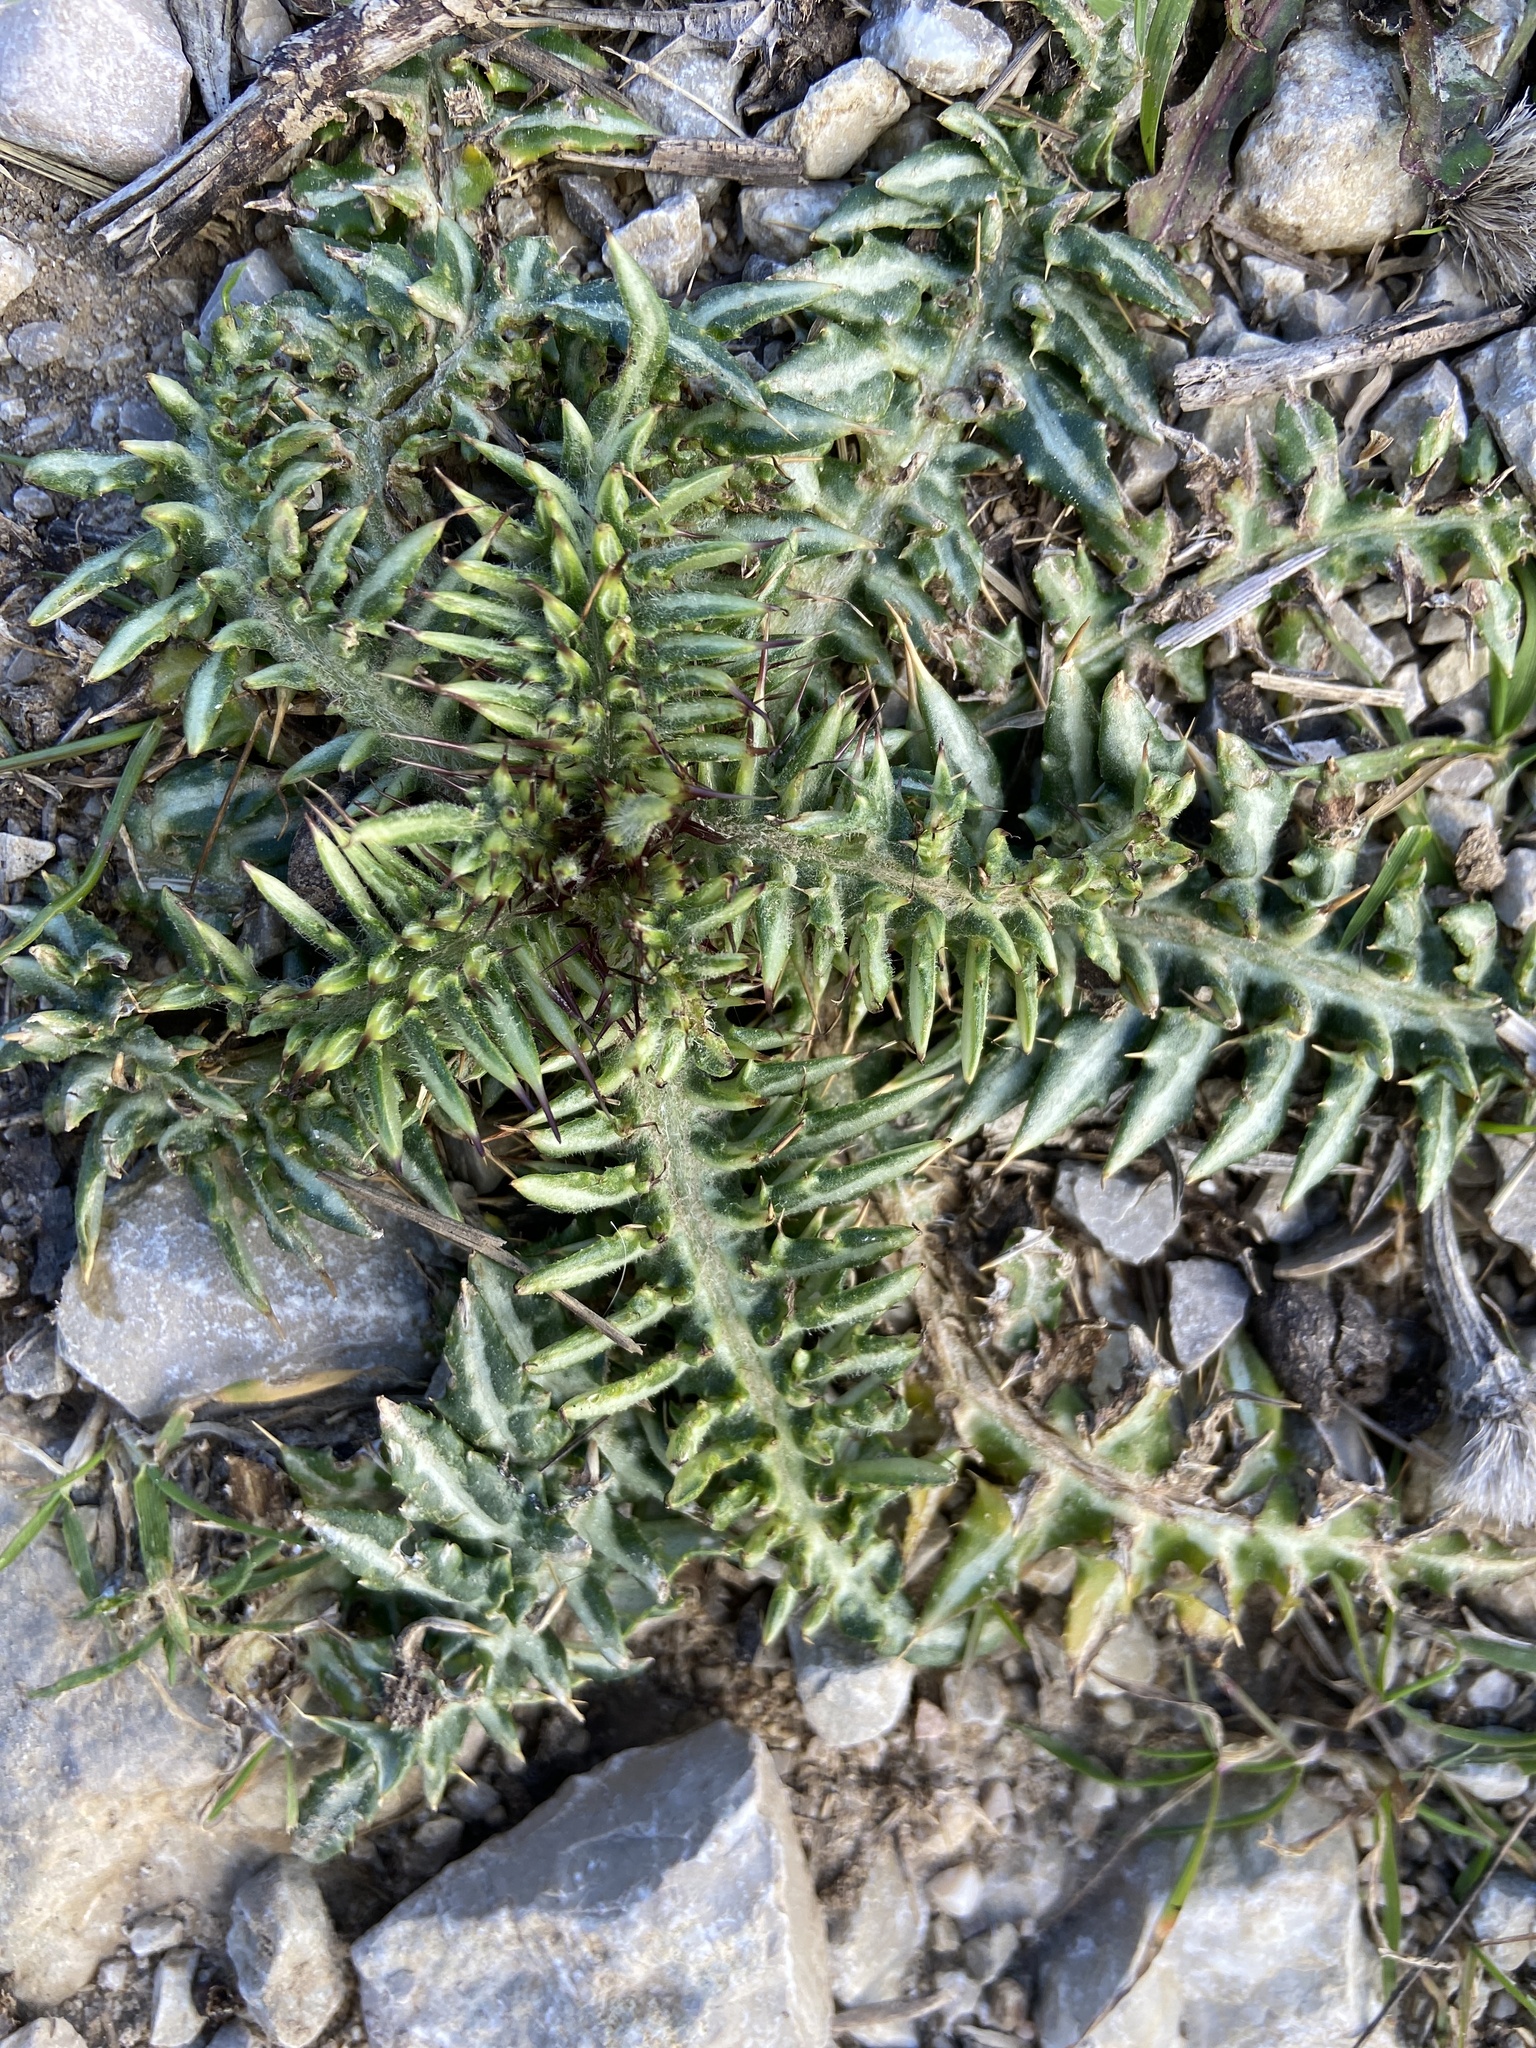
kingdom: Plantae
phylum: Tracheophyta
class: Magnoliopsida
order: Asterales
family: Asteraceae
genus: Galactites
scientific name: Galactites tomentosa
